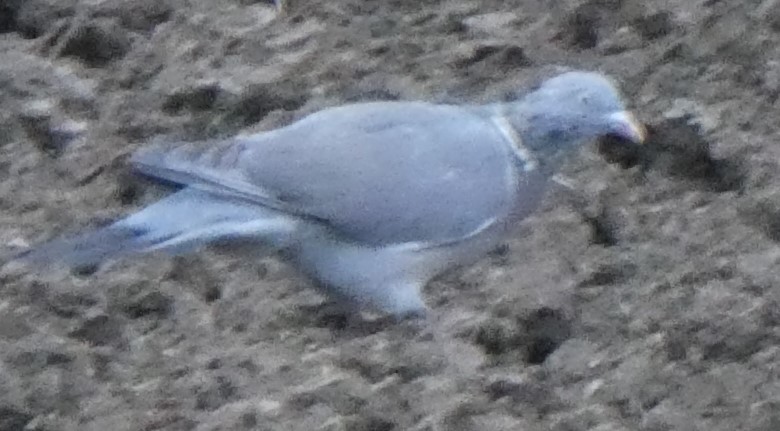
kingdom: Animalia
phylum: Chordata
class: Aves
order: Columbiformes
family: Columbidae
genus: Columba
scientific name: Columba palumbus
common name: Common wood pigeon
